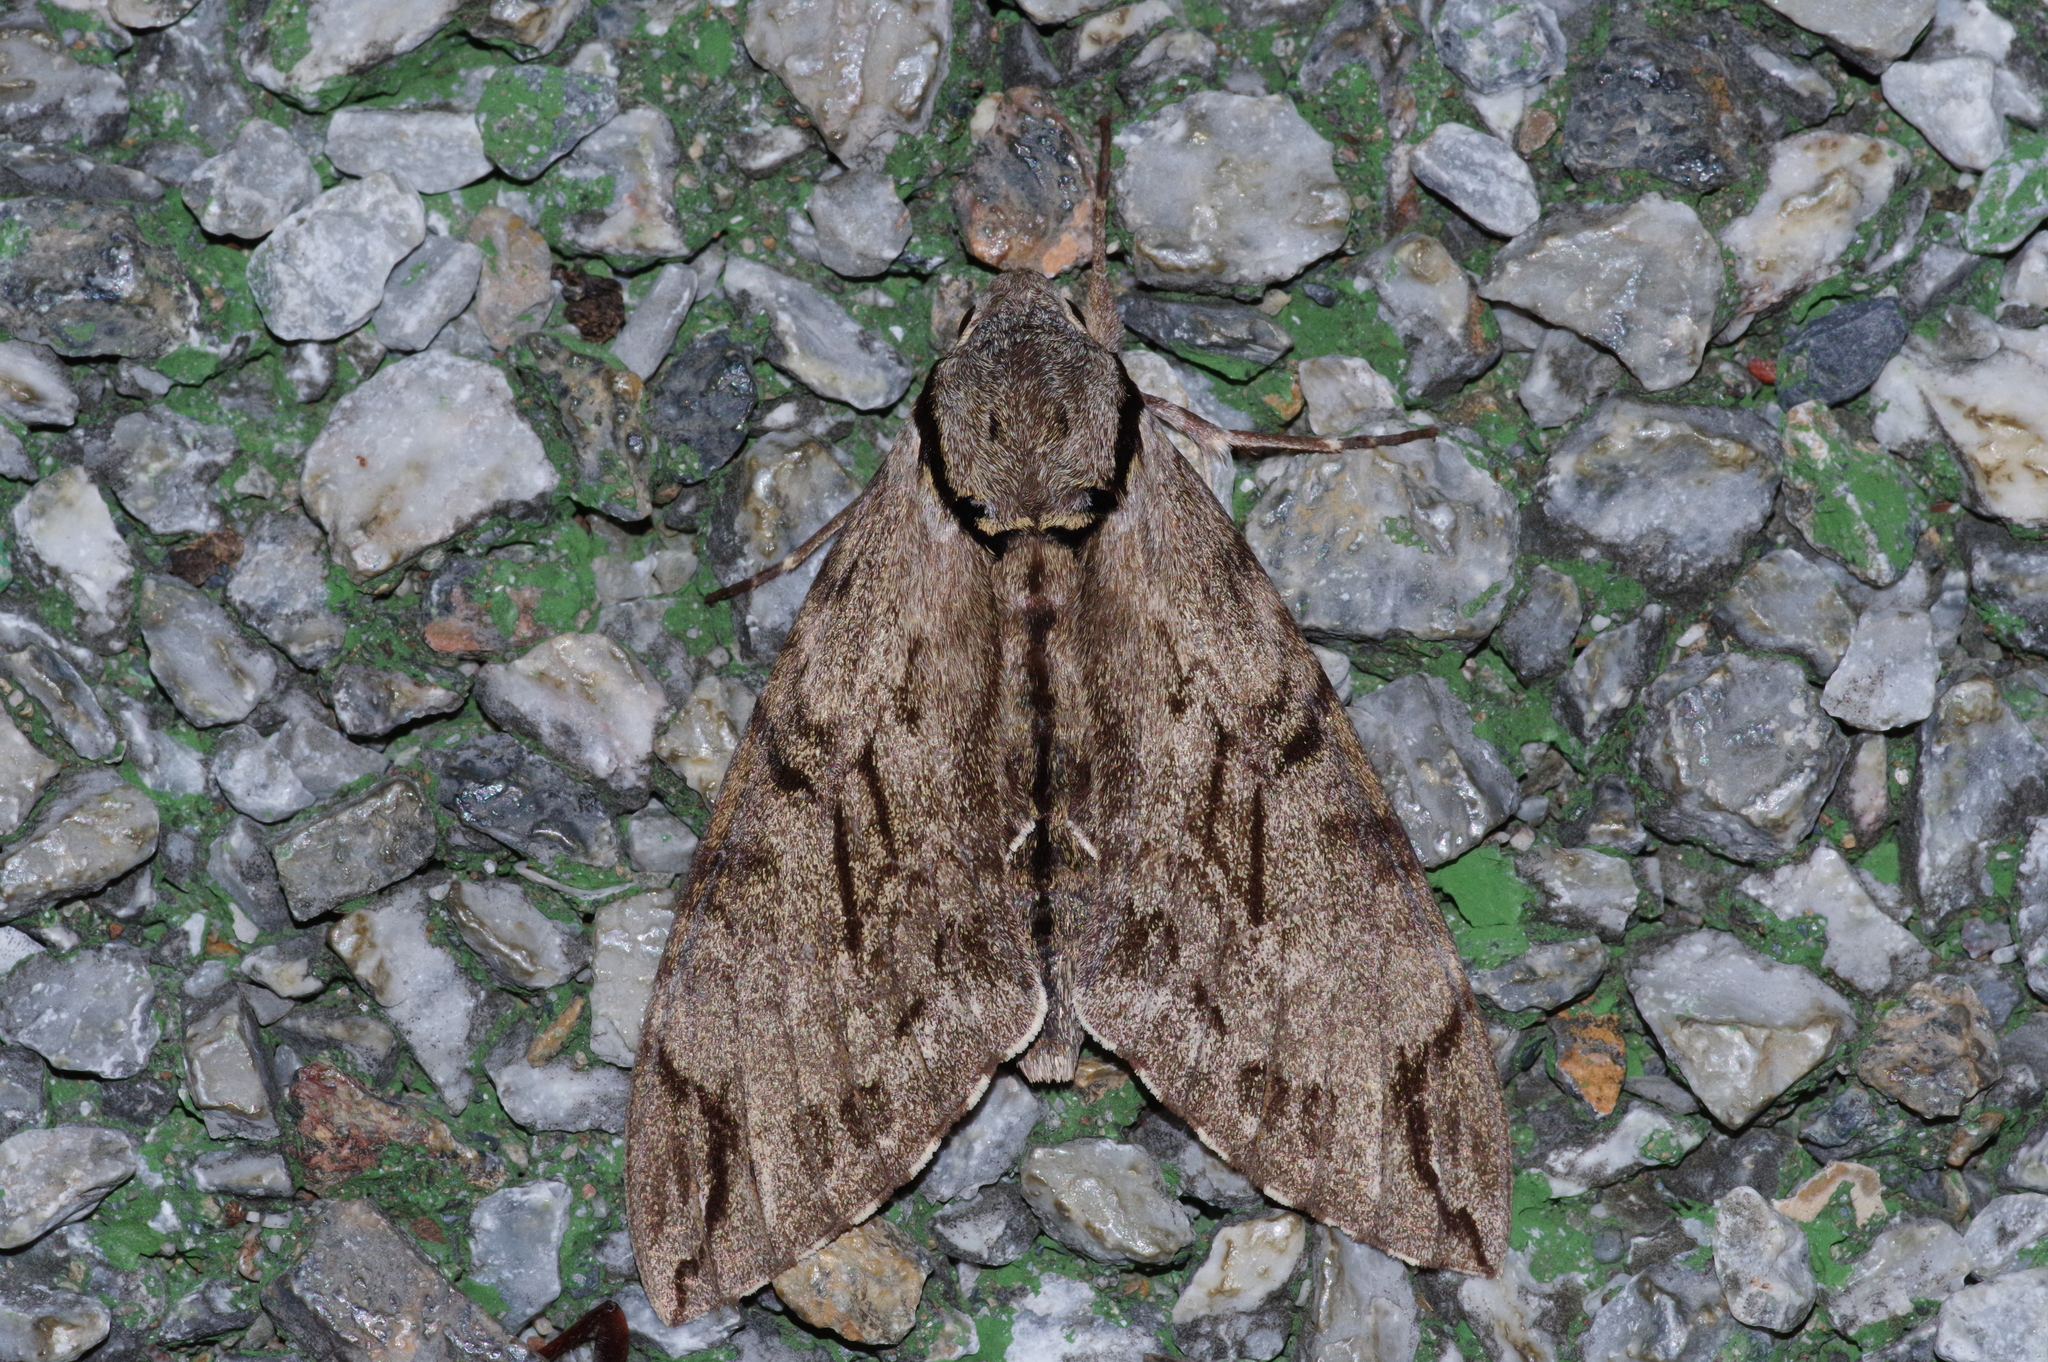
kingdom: Animalia
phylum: Arthropoda
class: Insecta
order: Lepidoptera
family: Sphingidae
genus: Psilogramma
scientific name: Psilogramma increta
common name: Gray hawk moth
